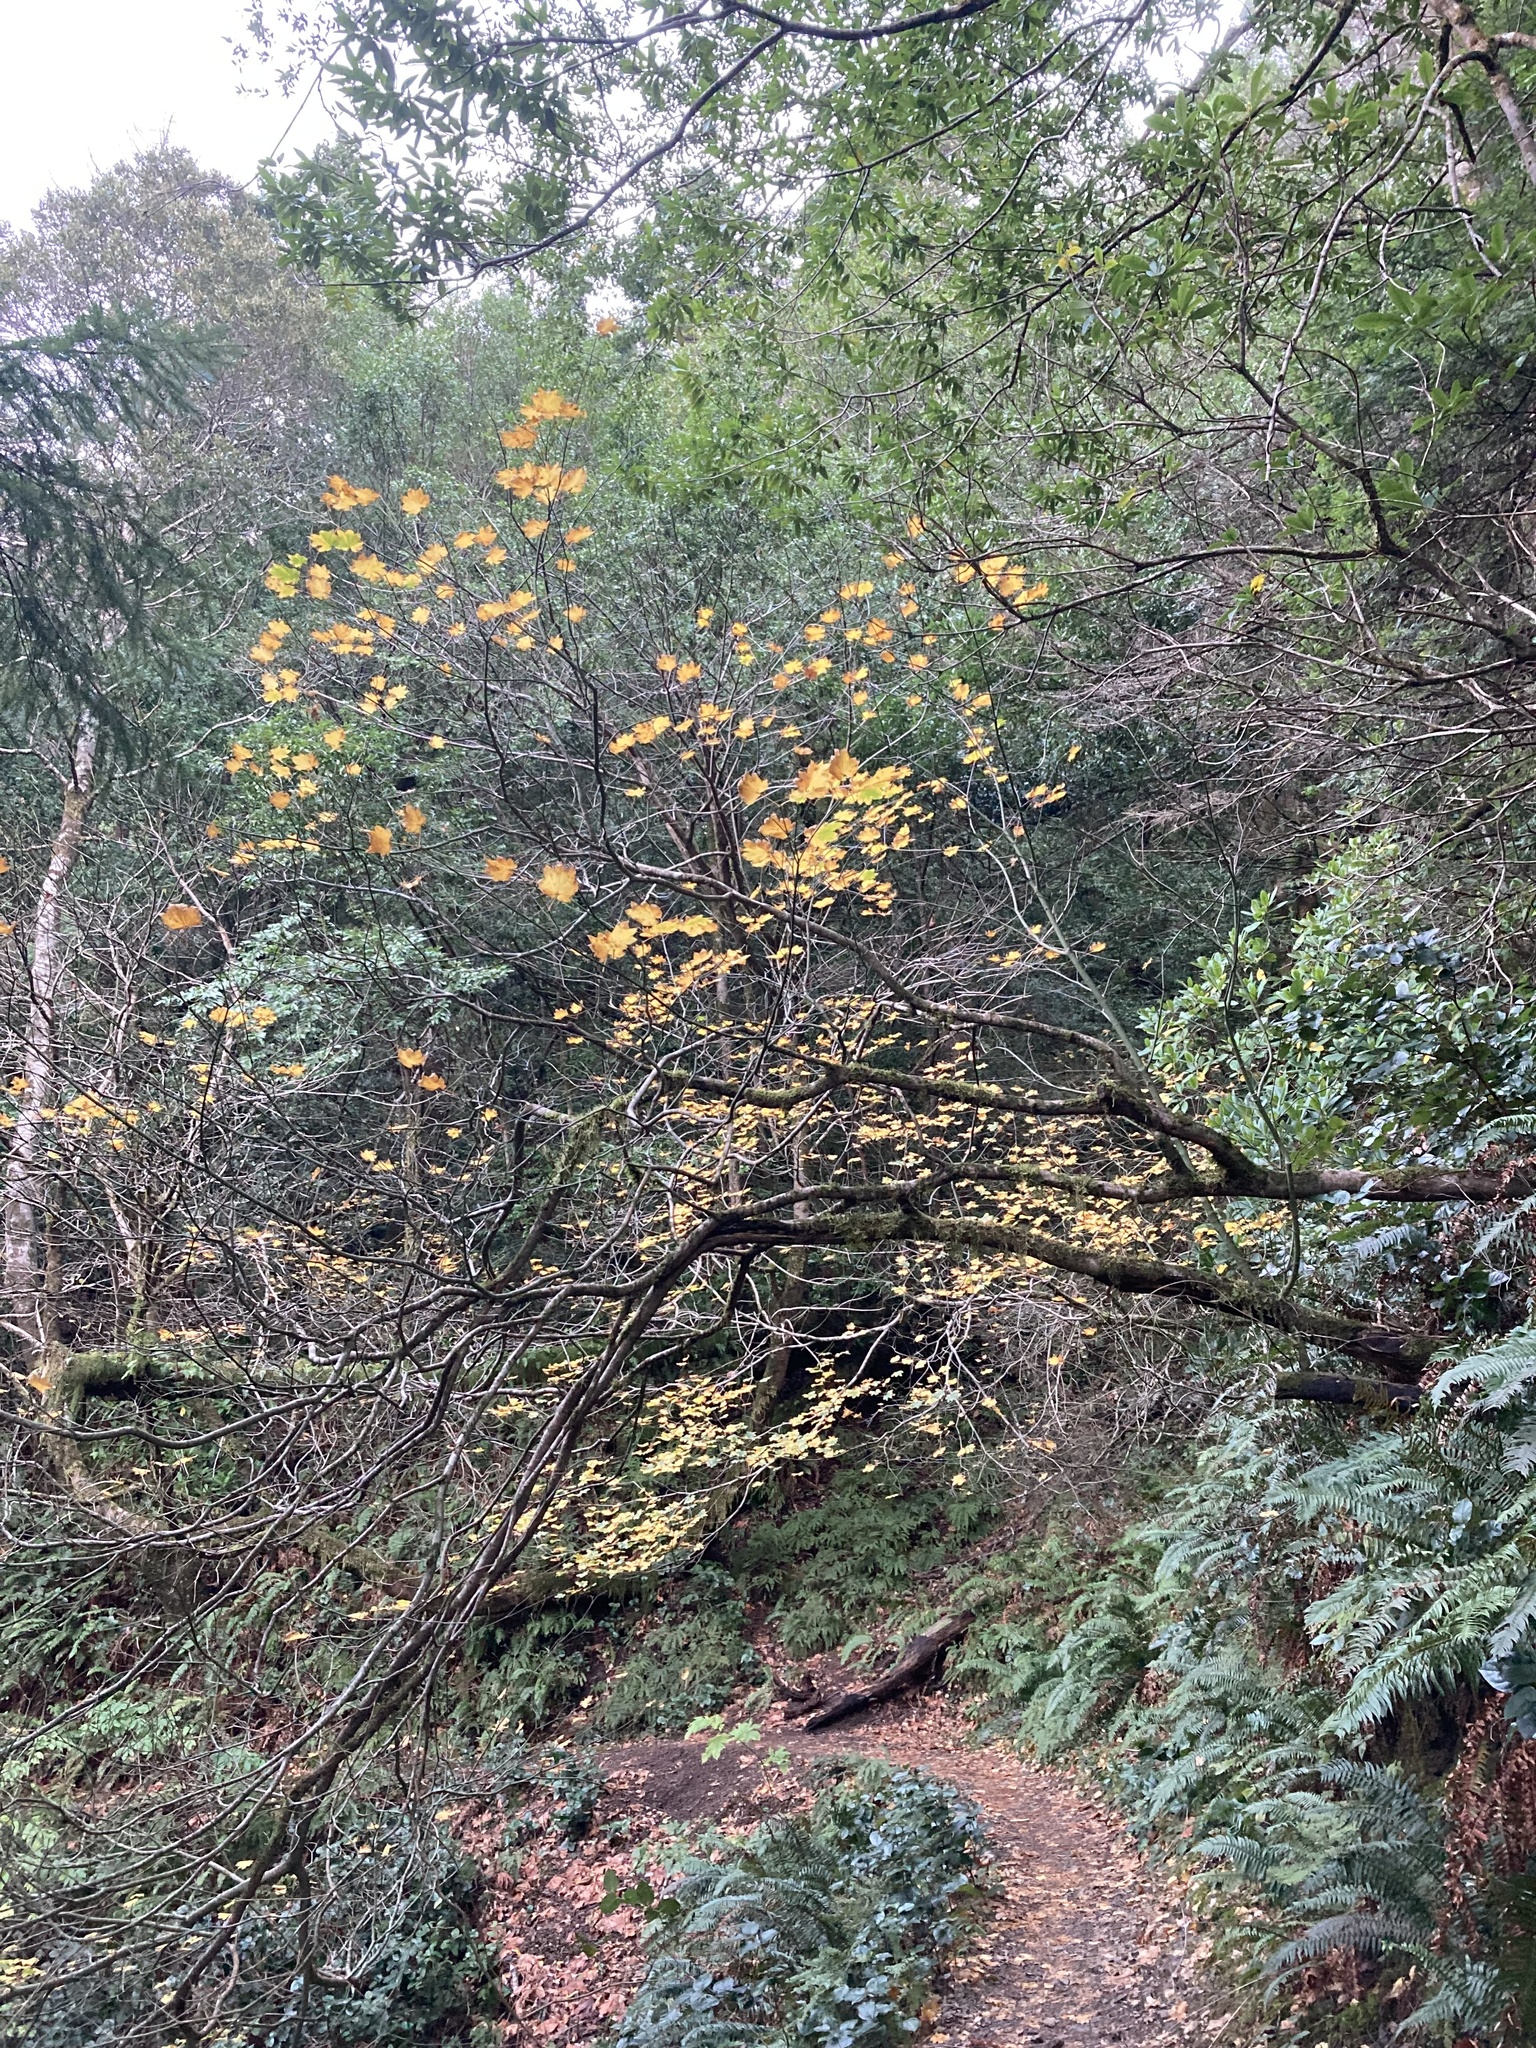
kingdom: Plantae
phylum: Tracheophyta
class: Magnoliopsida
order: Sapindales
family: Sapindaceae
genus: Acer
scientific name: Acer circinatum
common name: Vine maple
